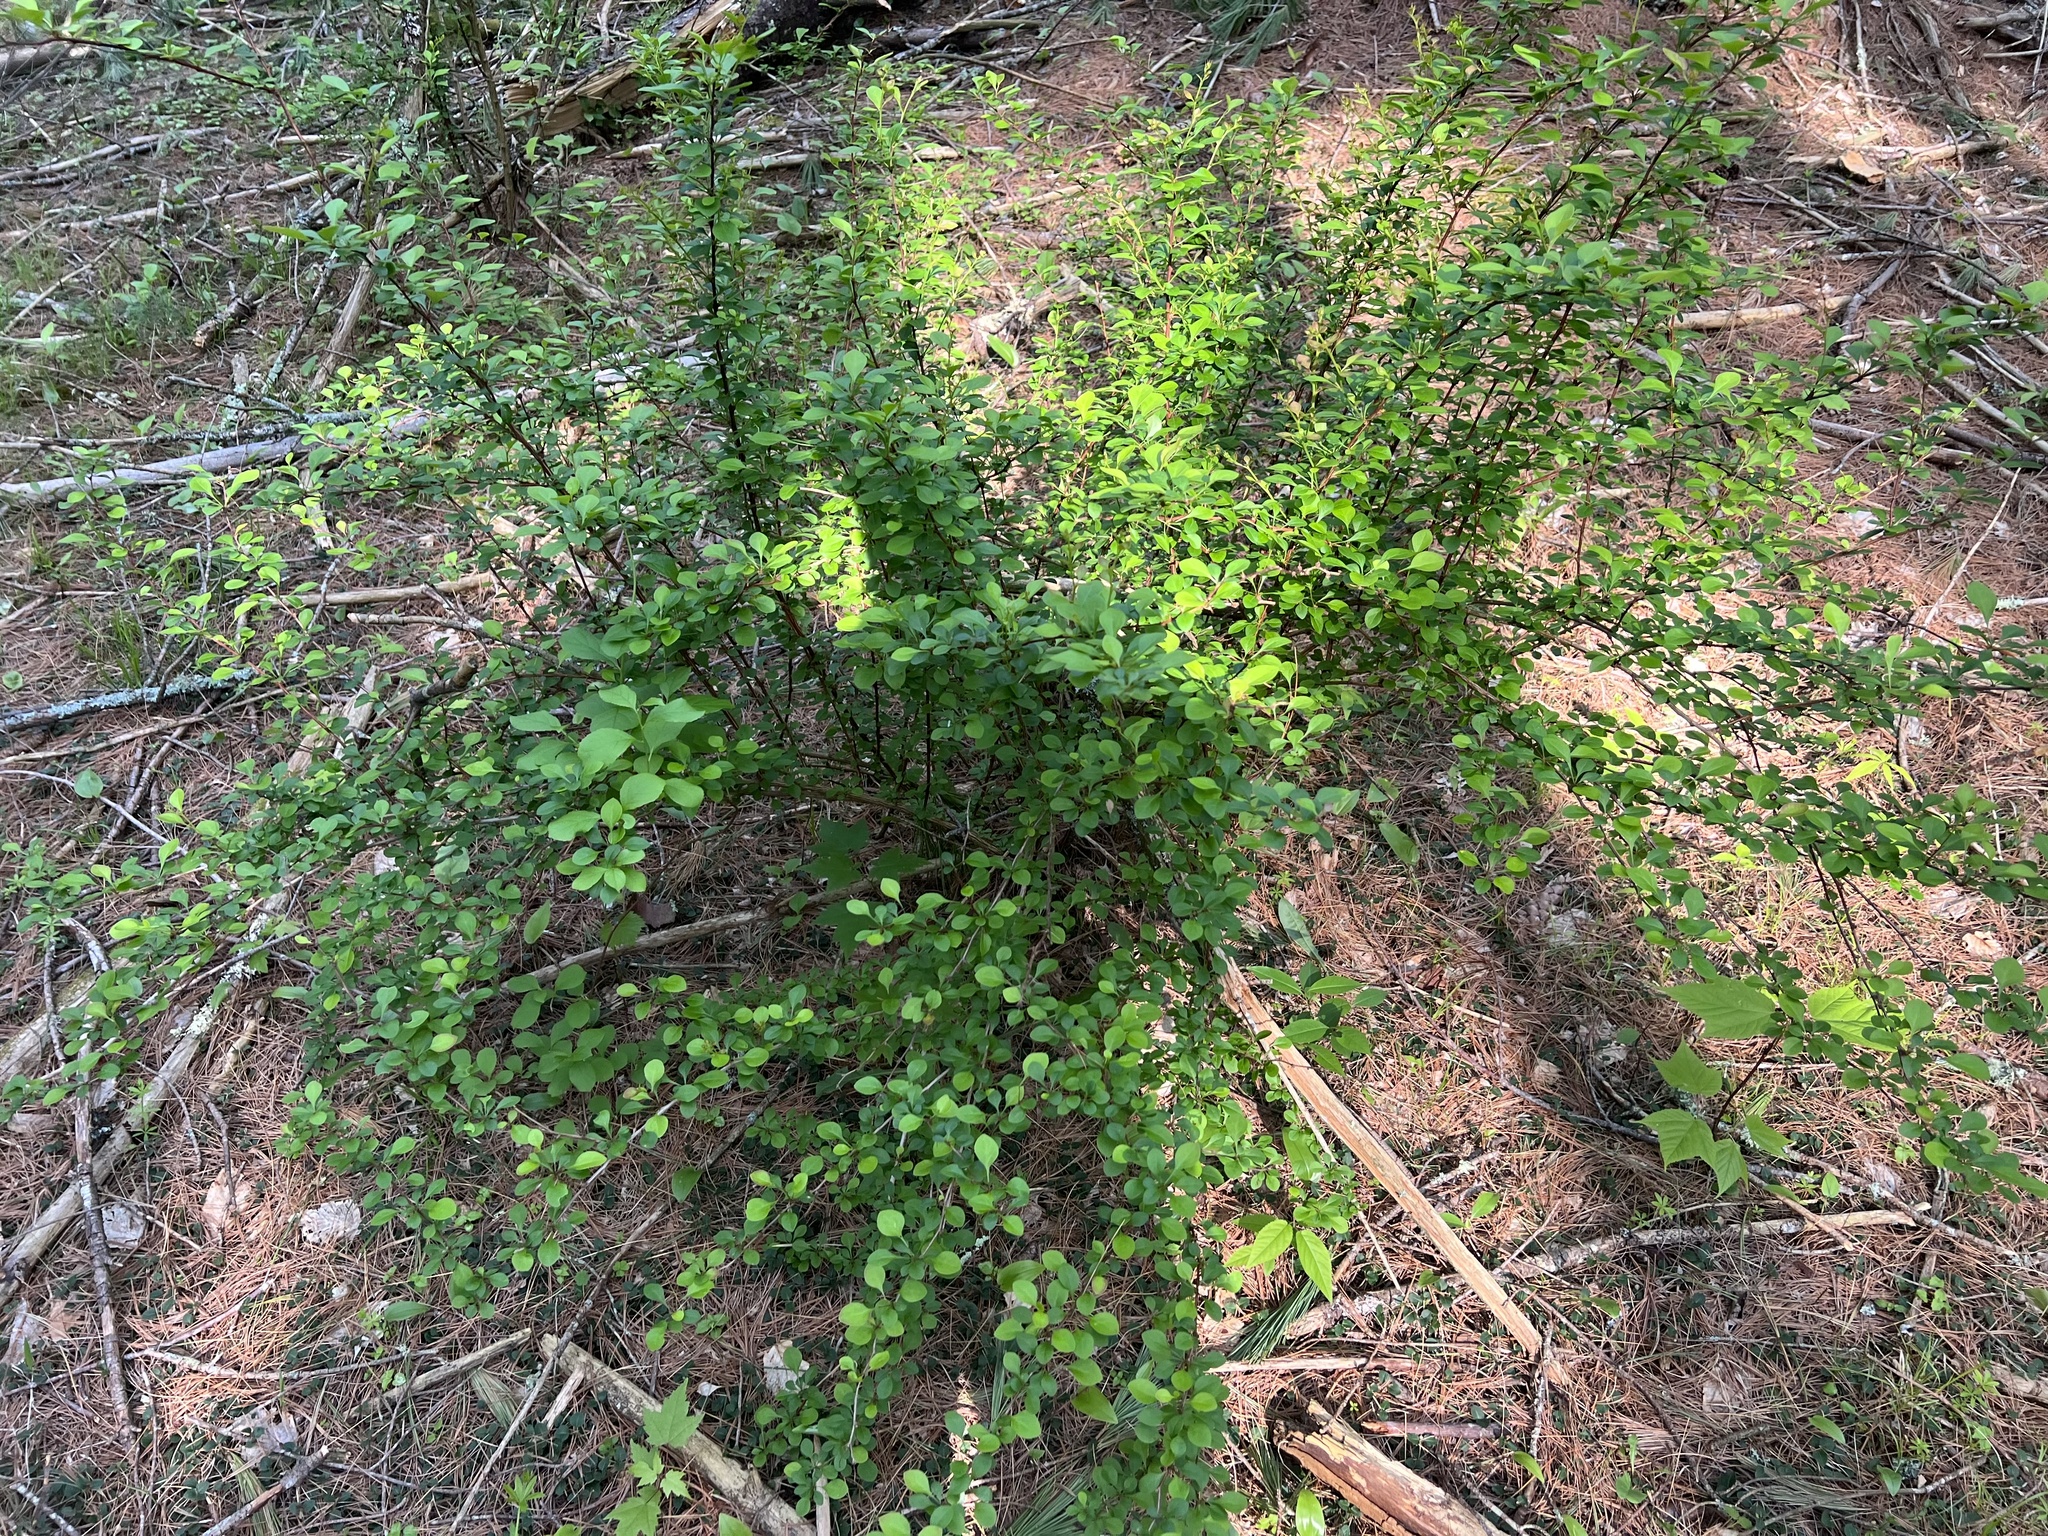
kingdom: Plantae
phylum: Tracheophyta
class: Magnoliopsida
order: Ranunculales
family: Berberidaceae
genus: Berberis
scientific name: Berberis thunbergii
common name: Japanese barberry
